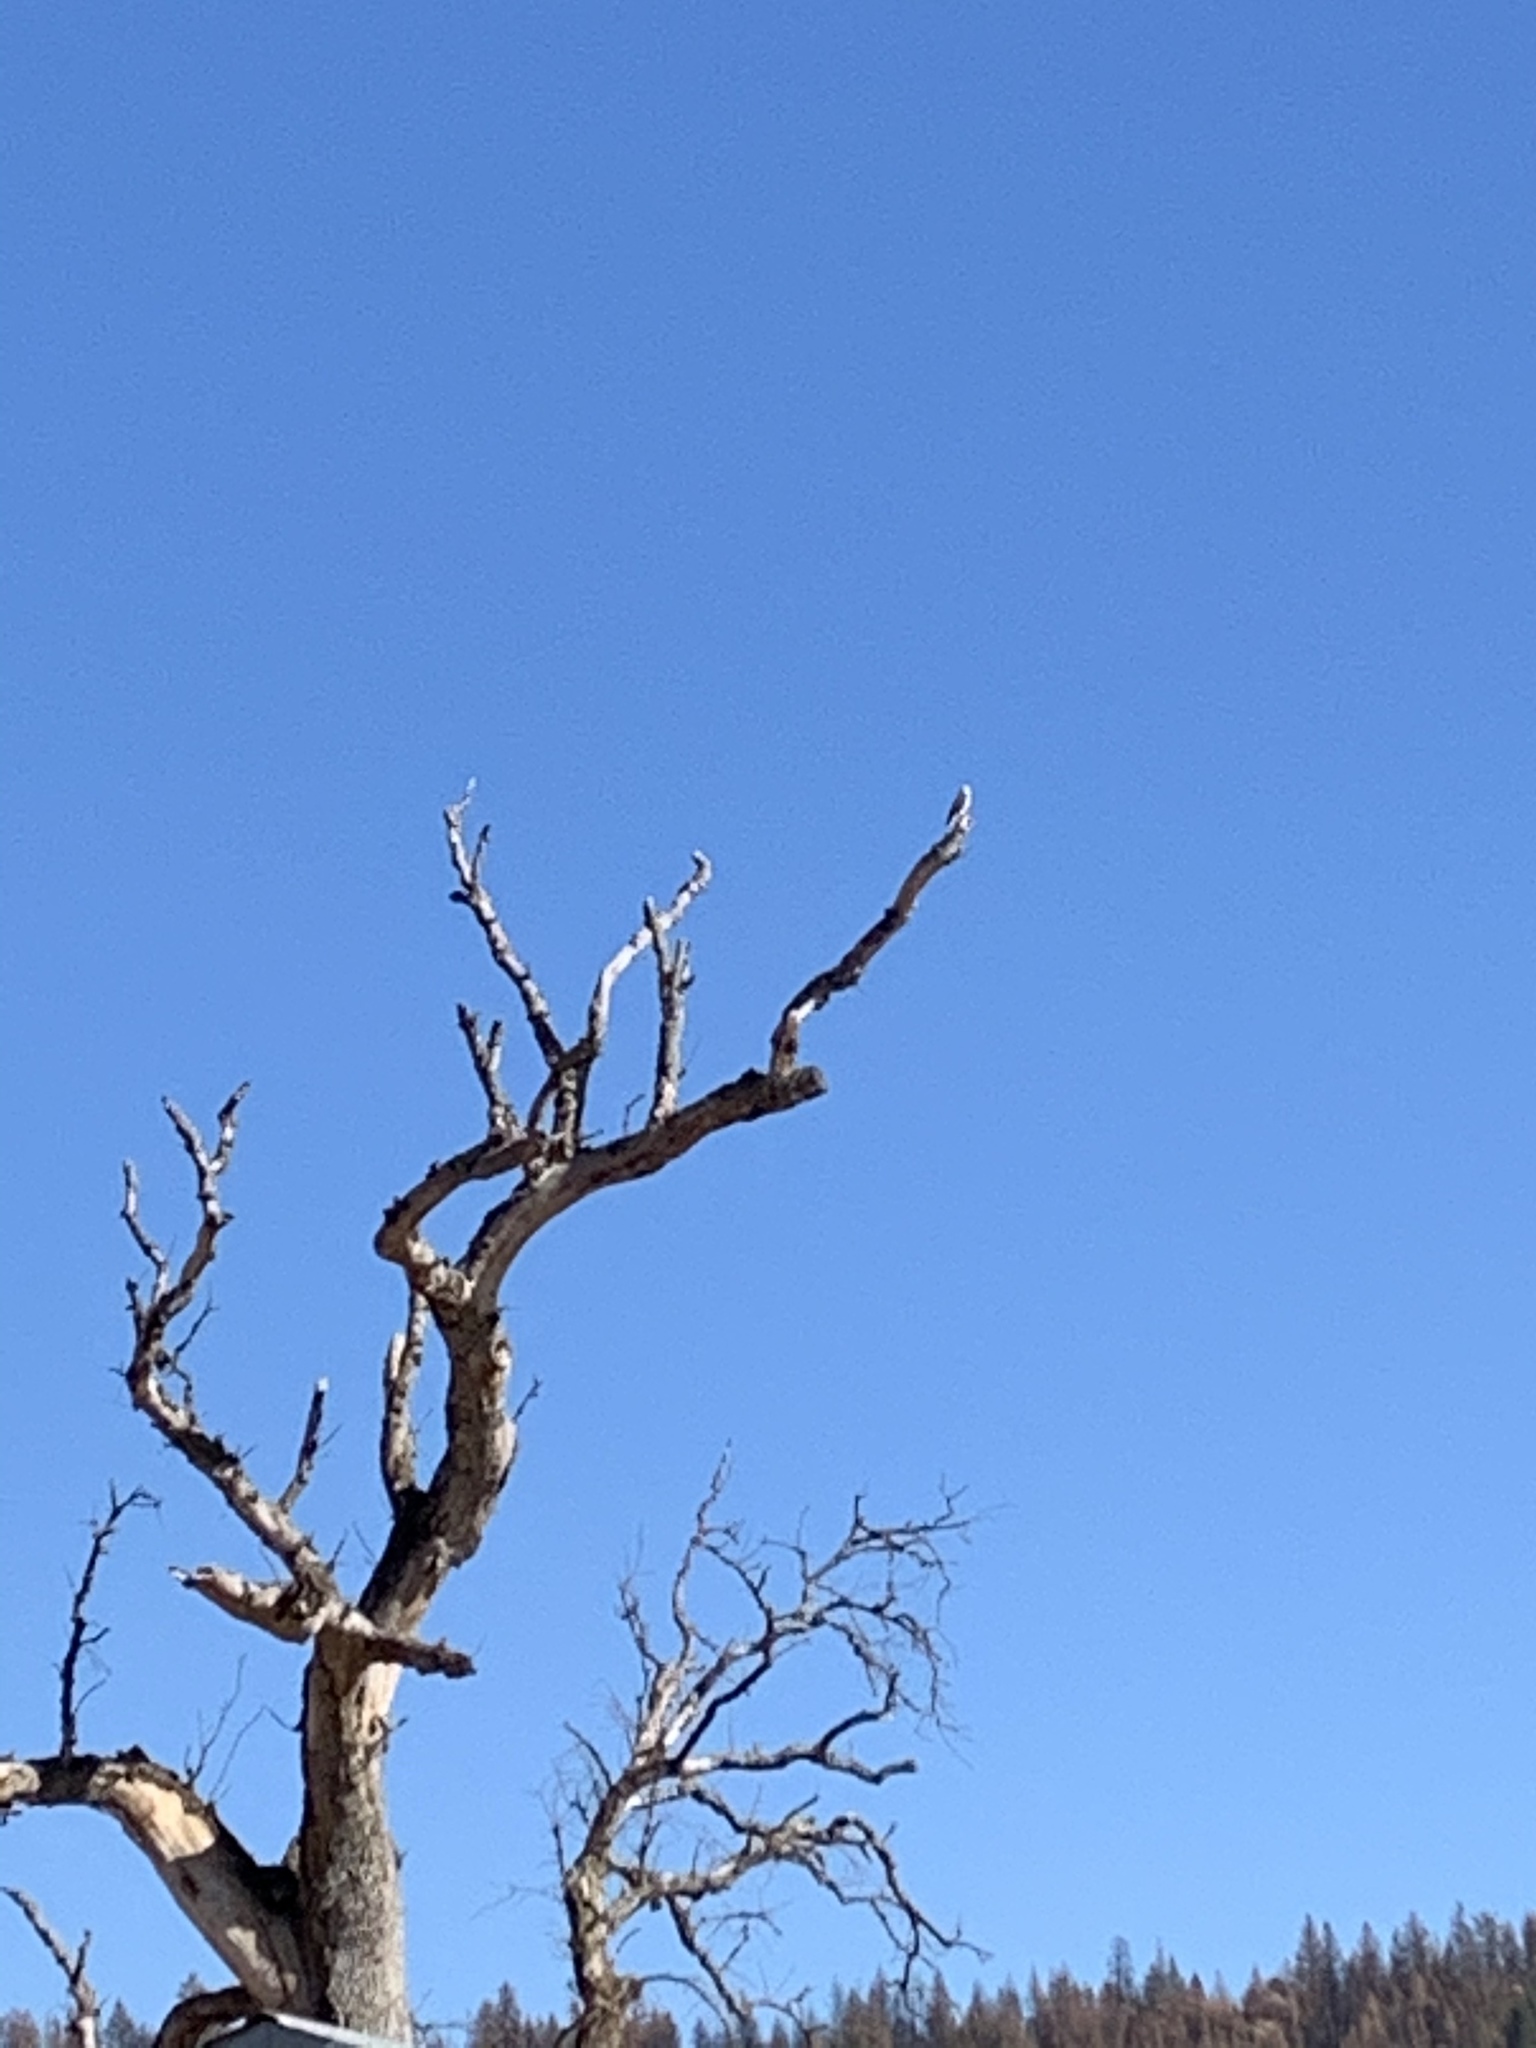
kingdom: Animalia
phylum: Chordata
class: Aves
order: Accipitriformes
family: Accipitridae
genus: Elanus
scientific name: Elanus leucurus
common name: White-tailed kite
